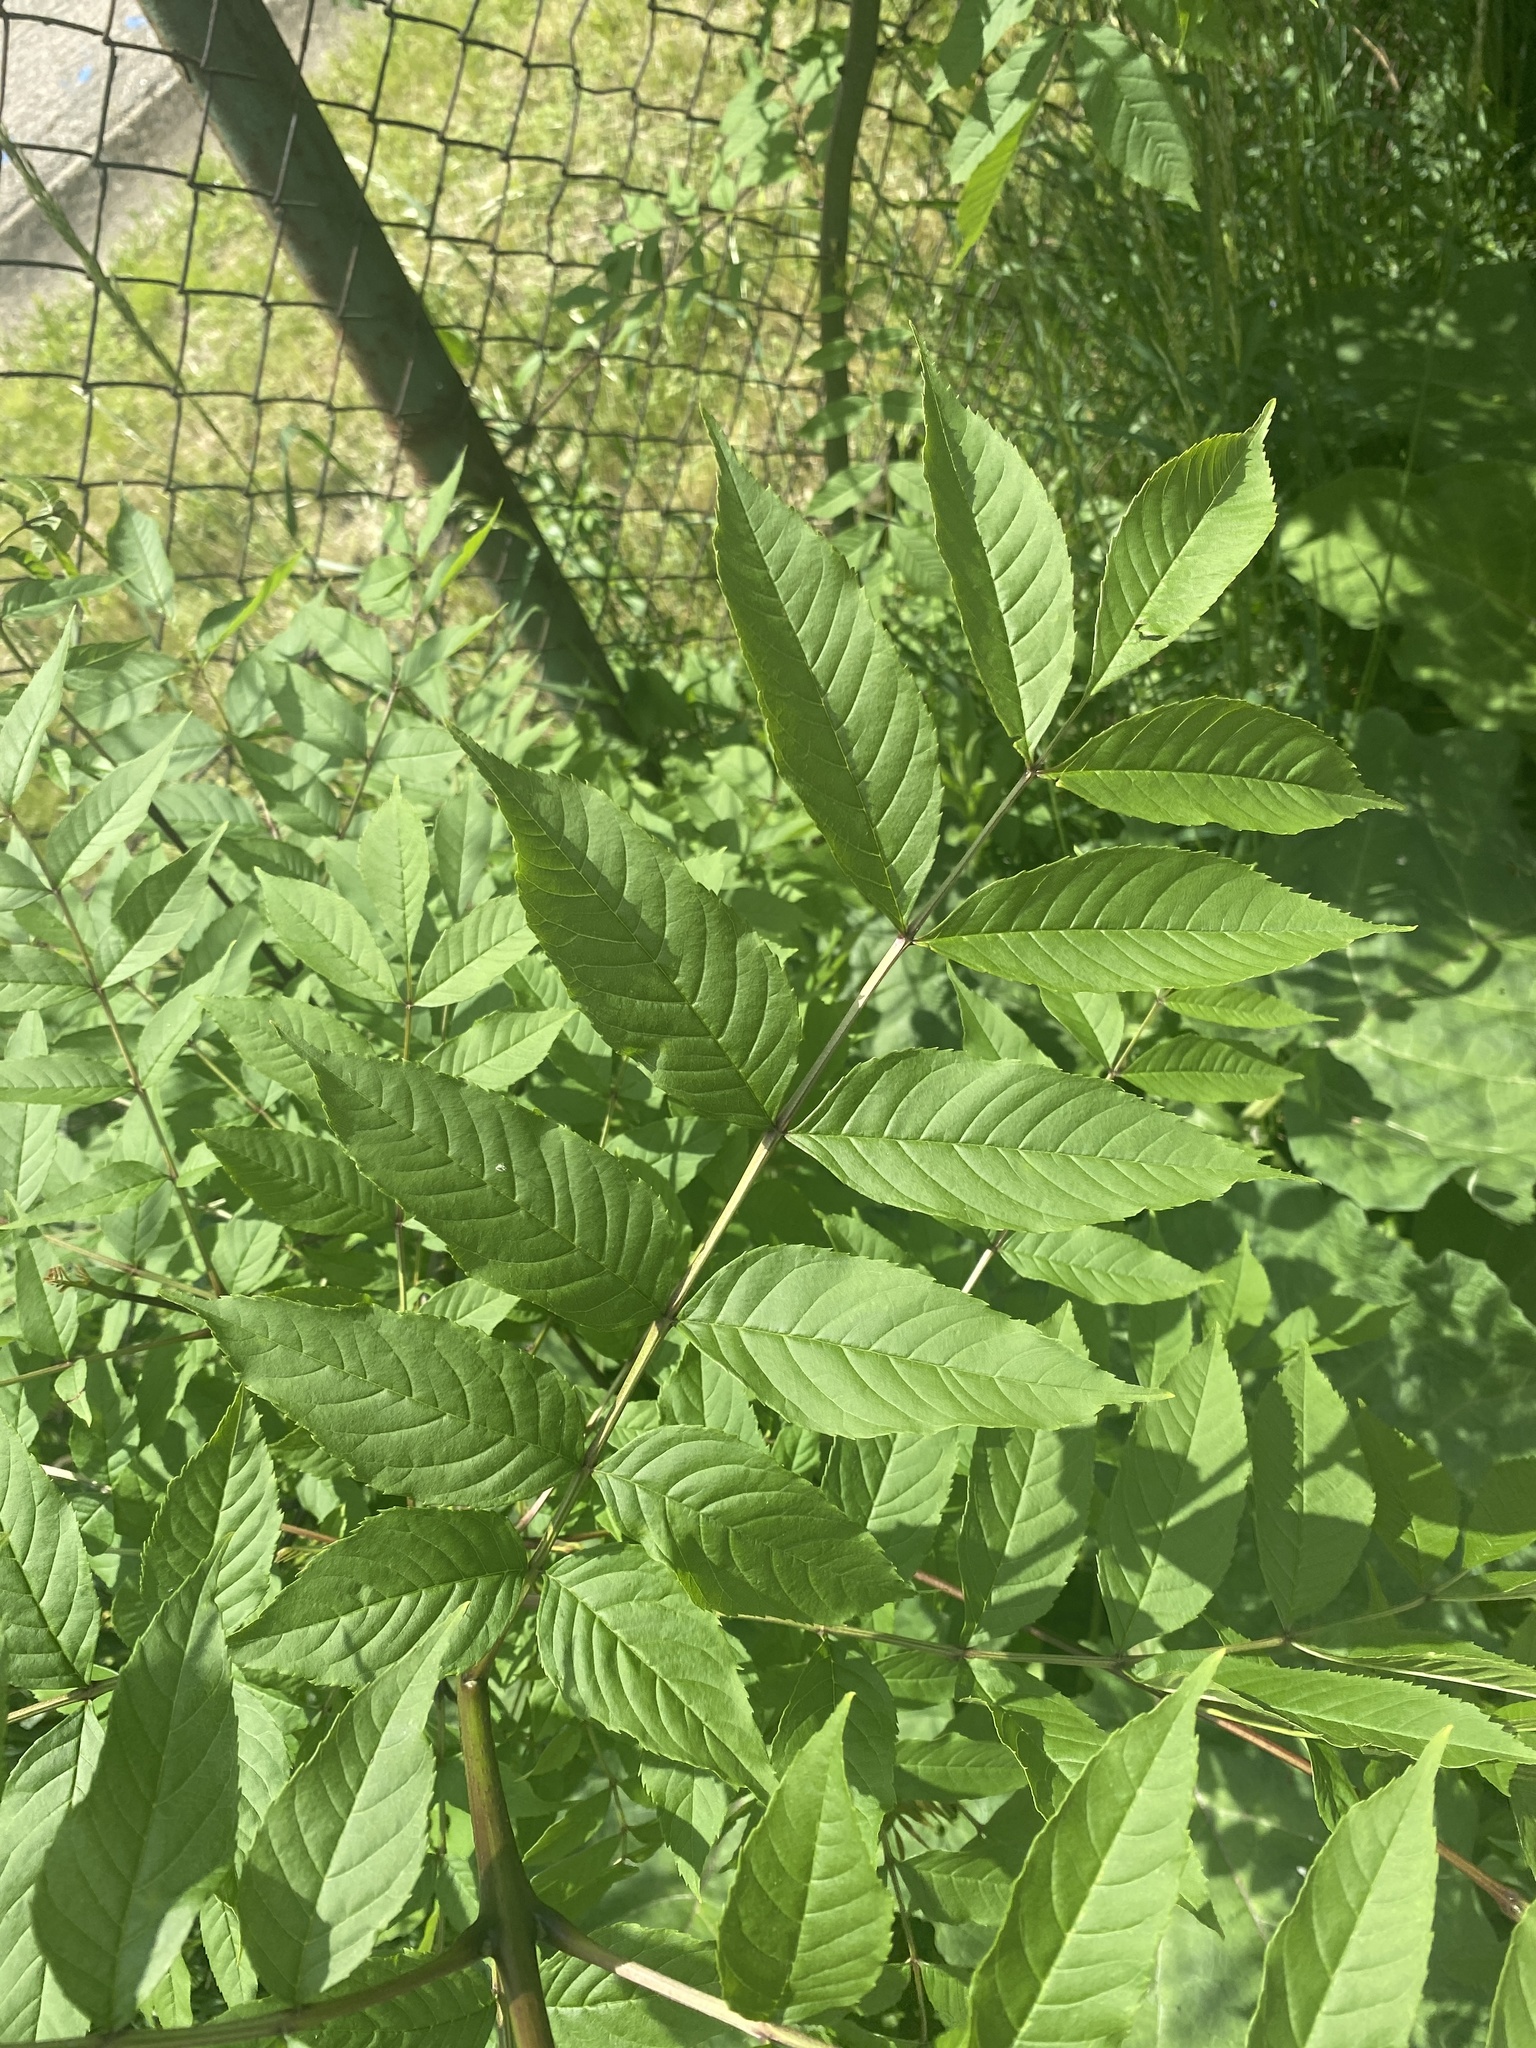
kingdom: Plantae
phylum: Tracheophyta
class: Magnoliopsida
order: Lamiales
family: Oleaceae
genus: Fraxinus
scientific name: Fraxinus excelsior
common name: European ash
